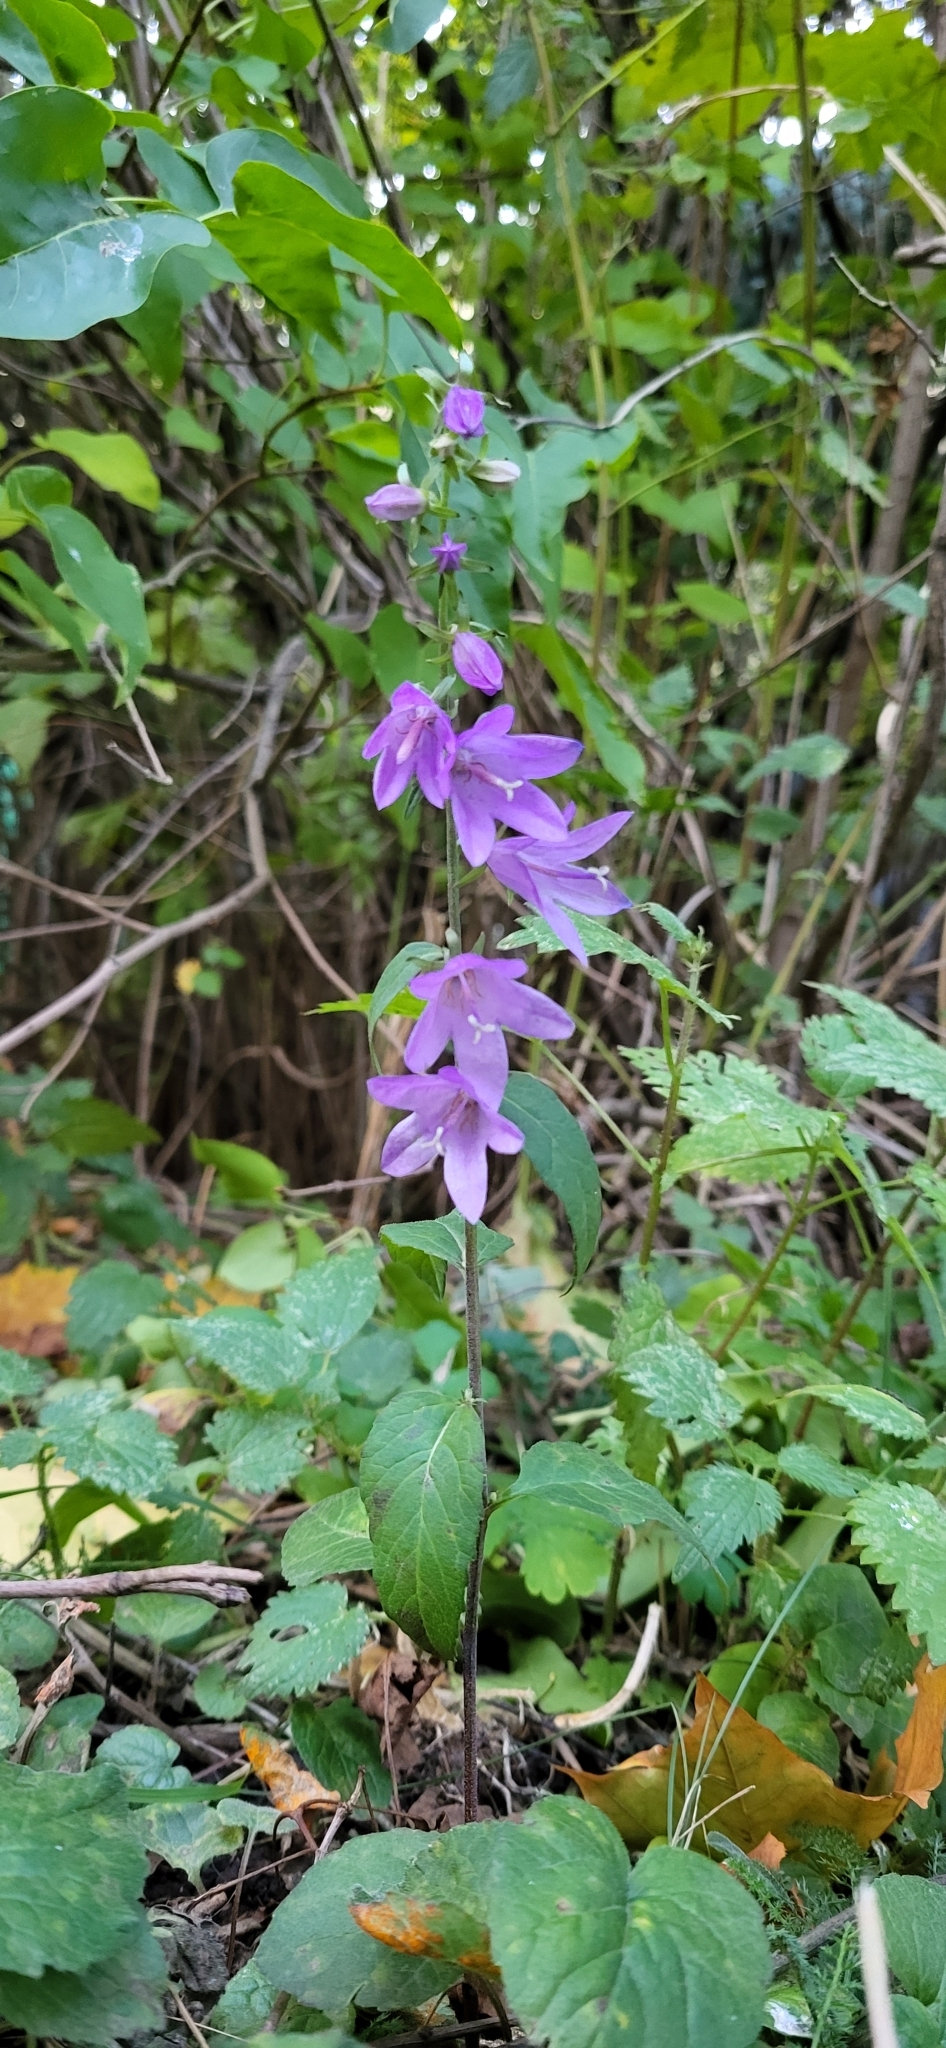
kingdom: Plantae
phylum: Tracheophyta
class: Magnoliopsida
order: Asterales
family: Campanulaceae
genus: Campanula
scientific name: Campanula rapunculoides
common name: Creeping bellflower
